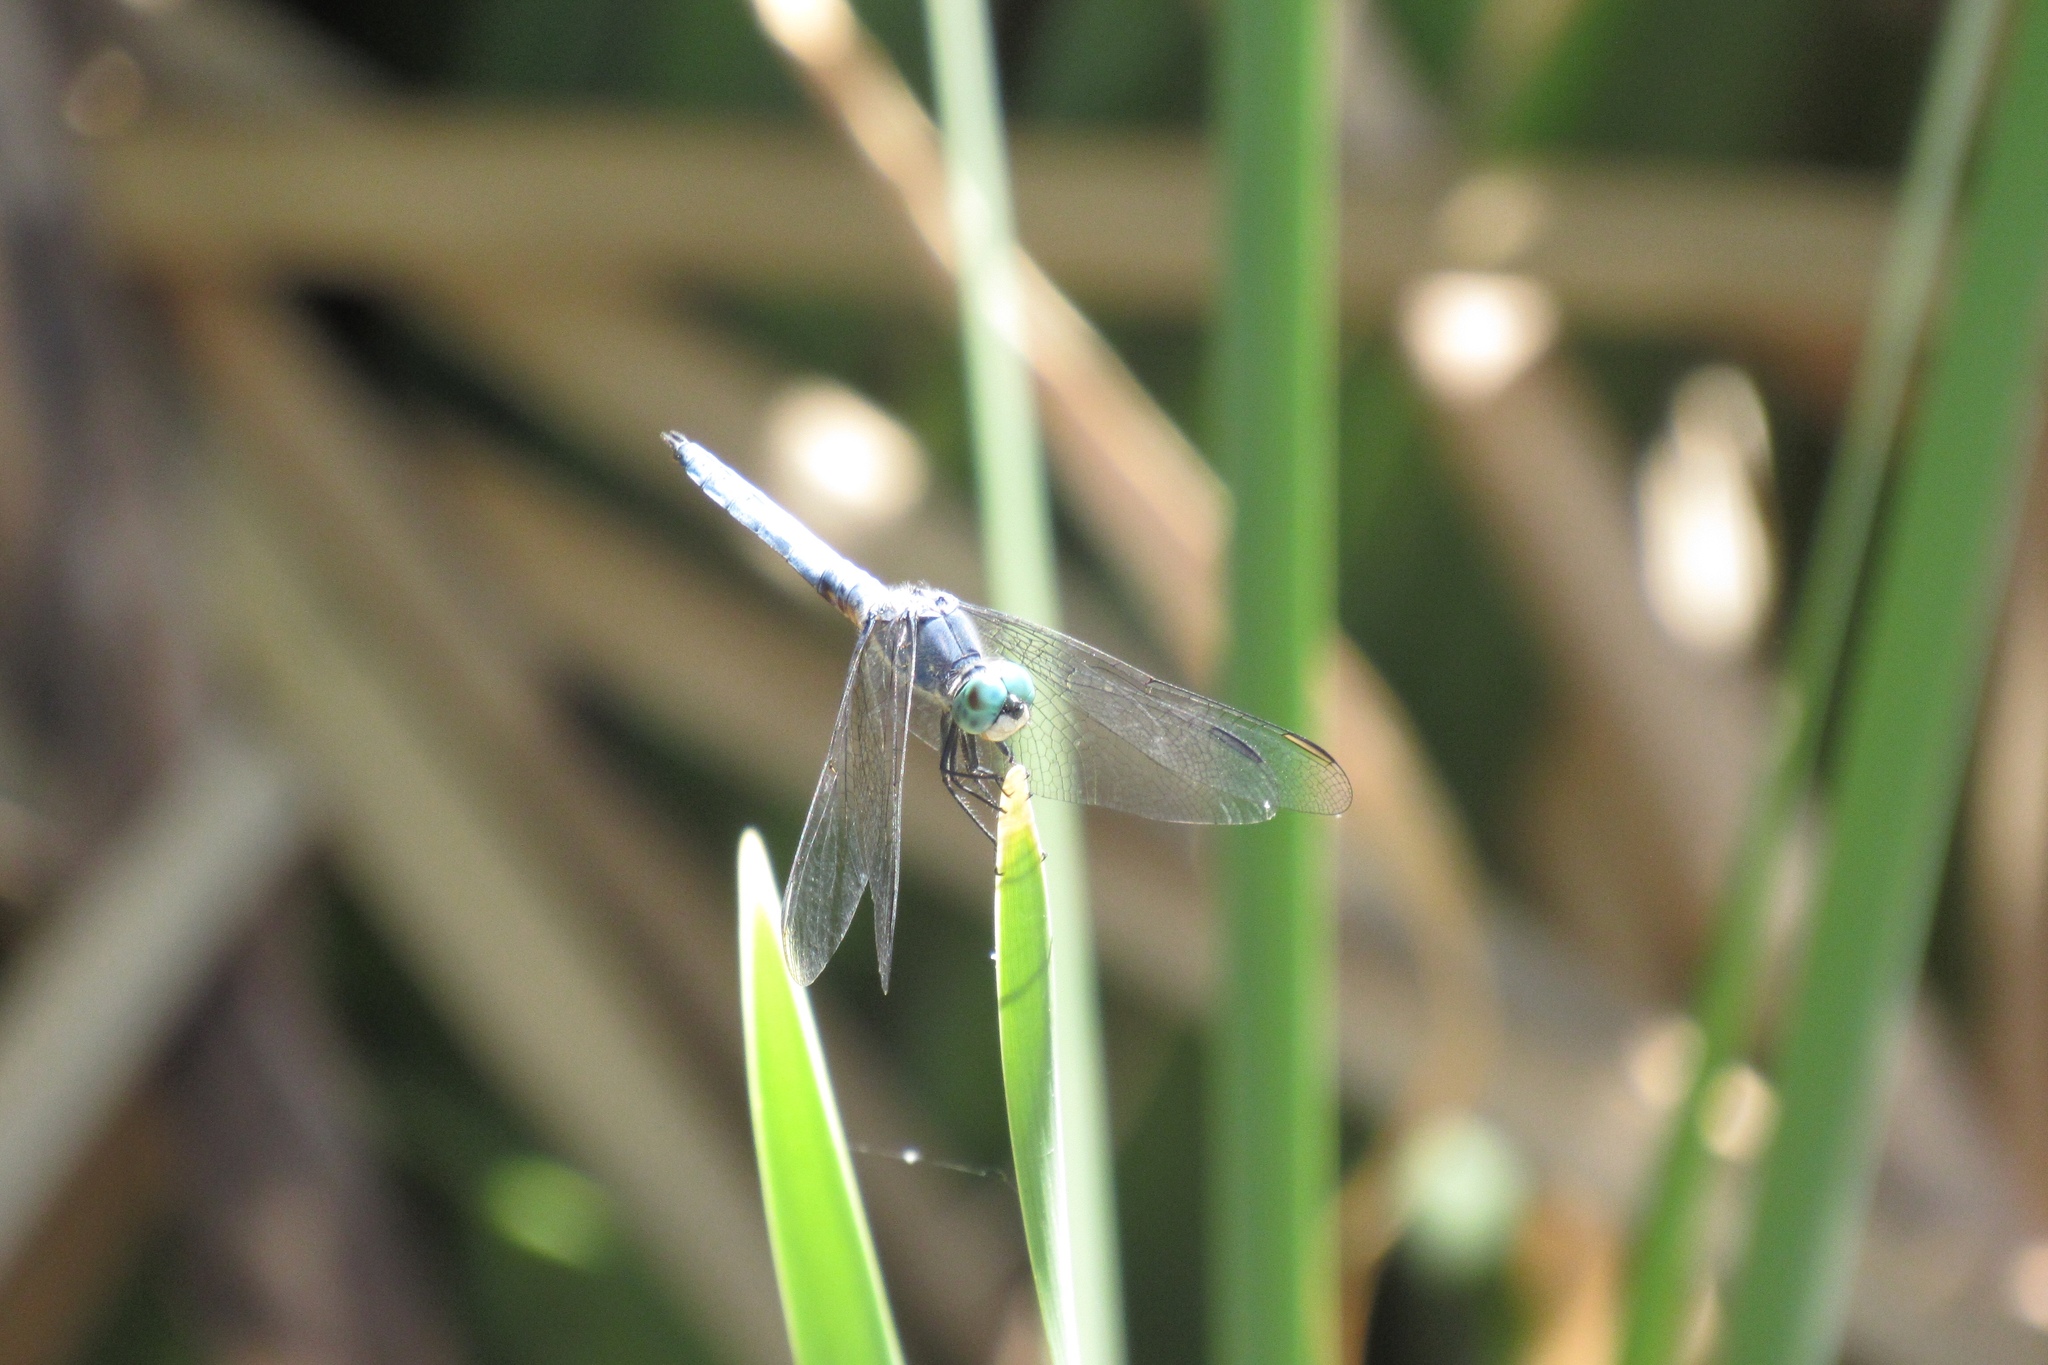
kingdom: Animalia
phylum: Arthropoda
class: Insecta
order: Odonata
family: Libellulidae
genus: Pachydiplax
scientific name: Pachydiplax longipennis
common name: Blue dasher
